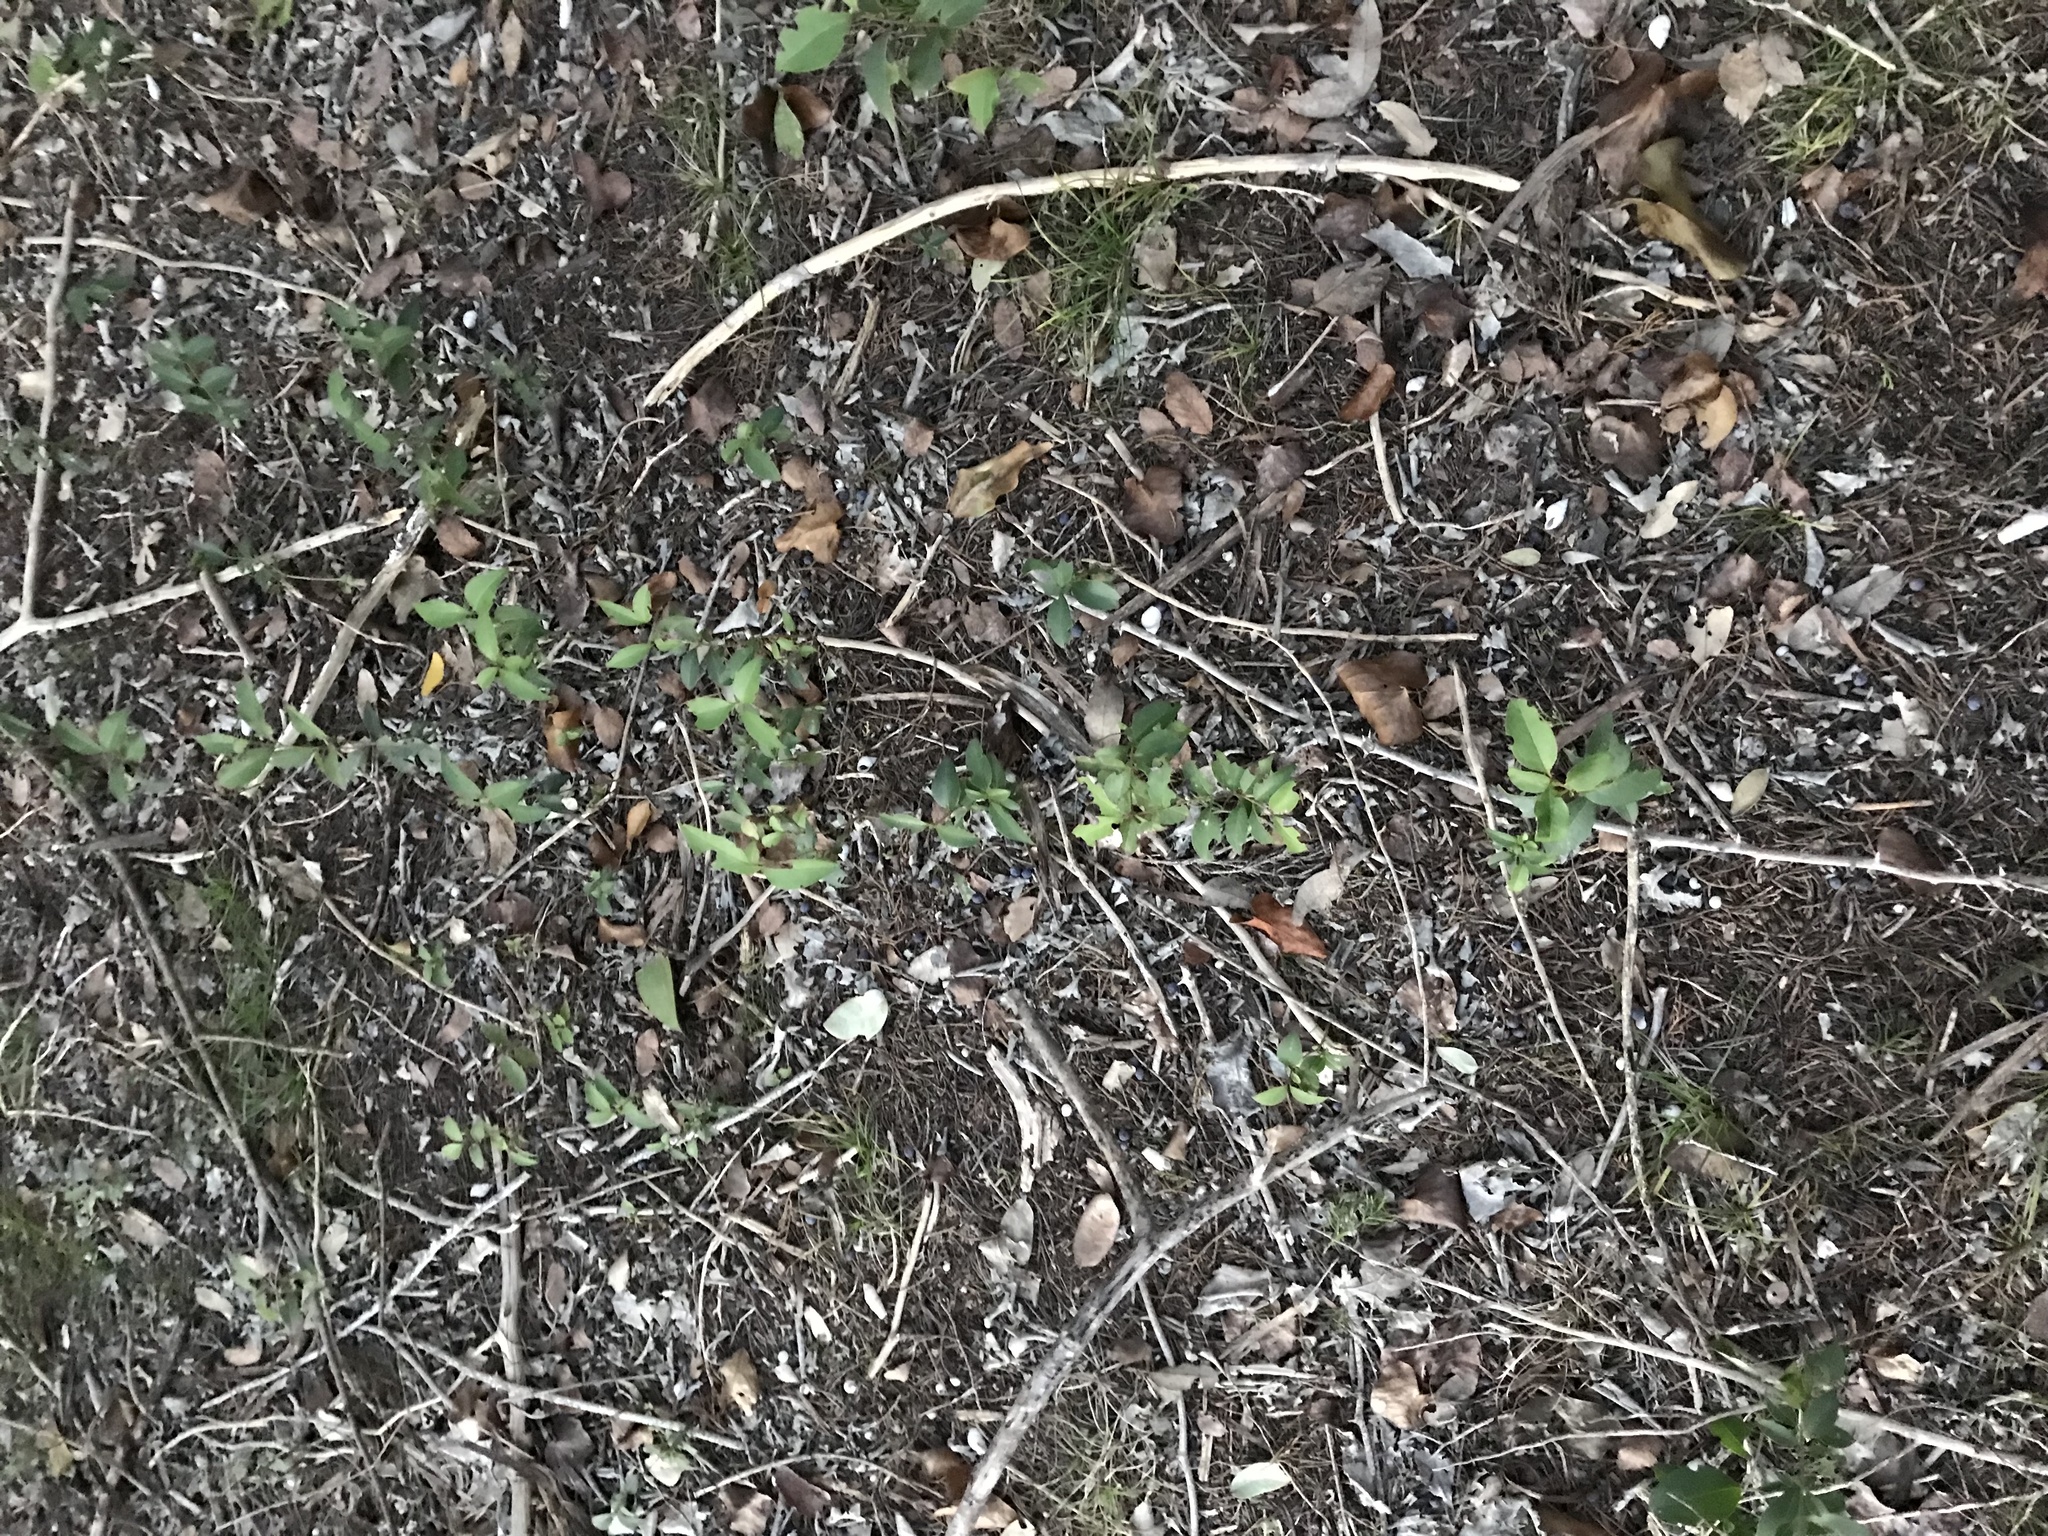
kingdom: Plantae
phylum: Tracheophyta
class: Magnoliopsida
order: Lamiales
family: Oleaceae
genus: Ligustrum
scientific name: Ligustrum lucidum
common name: Glossy privet
